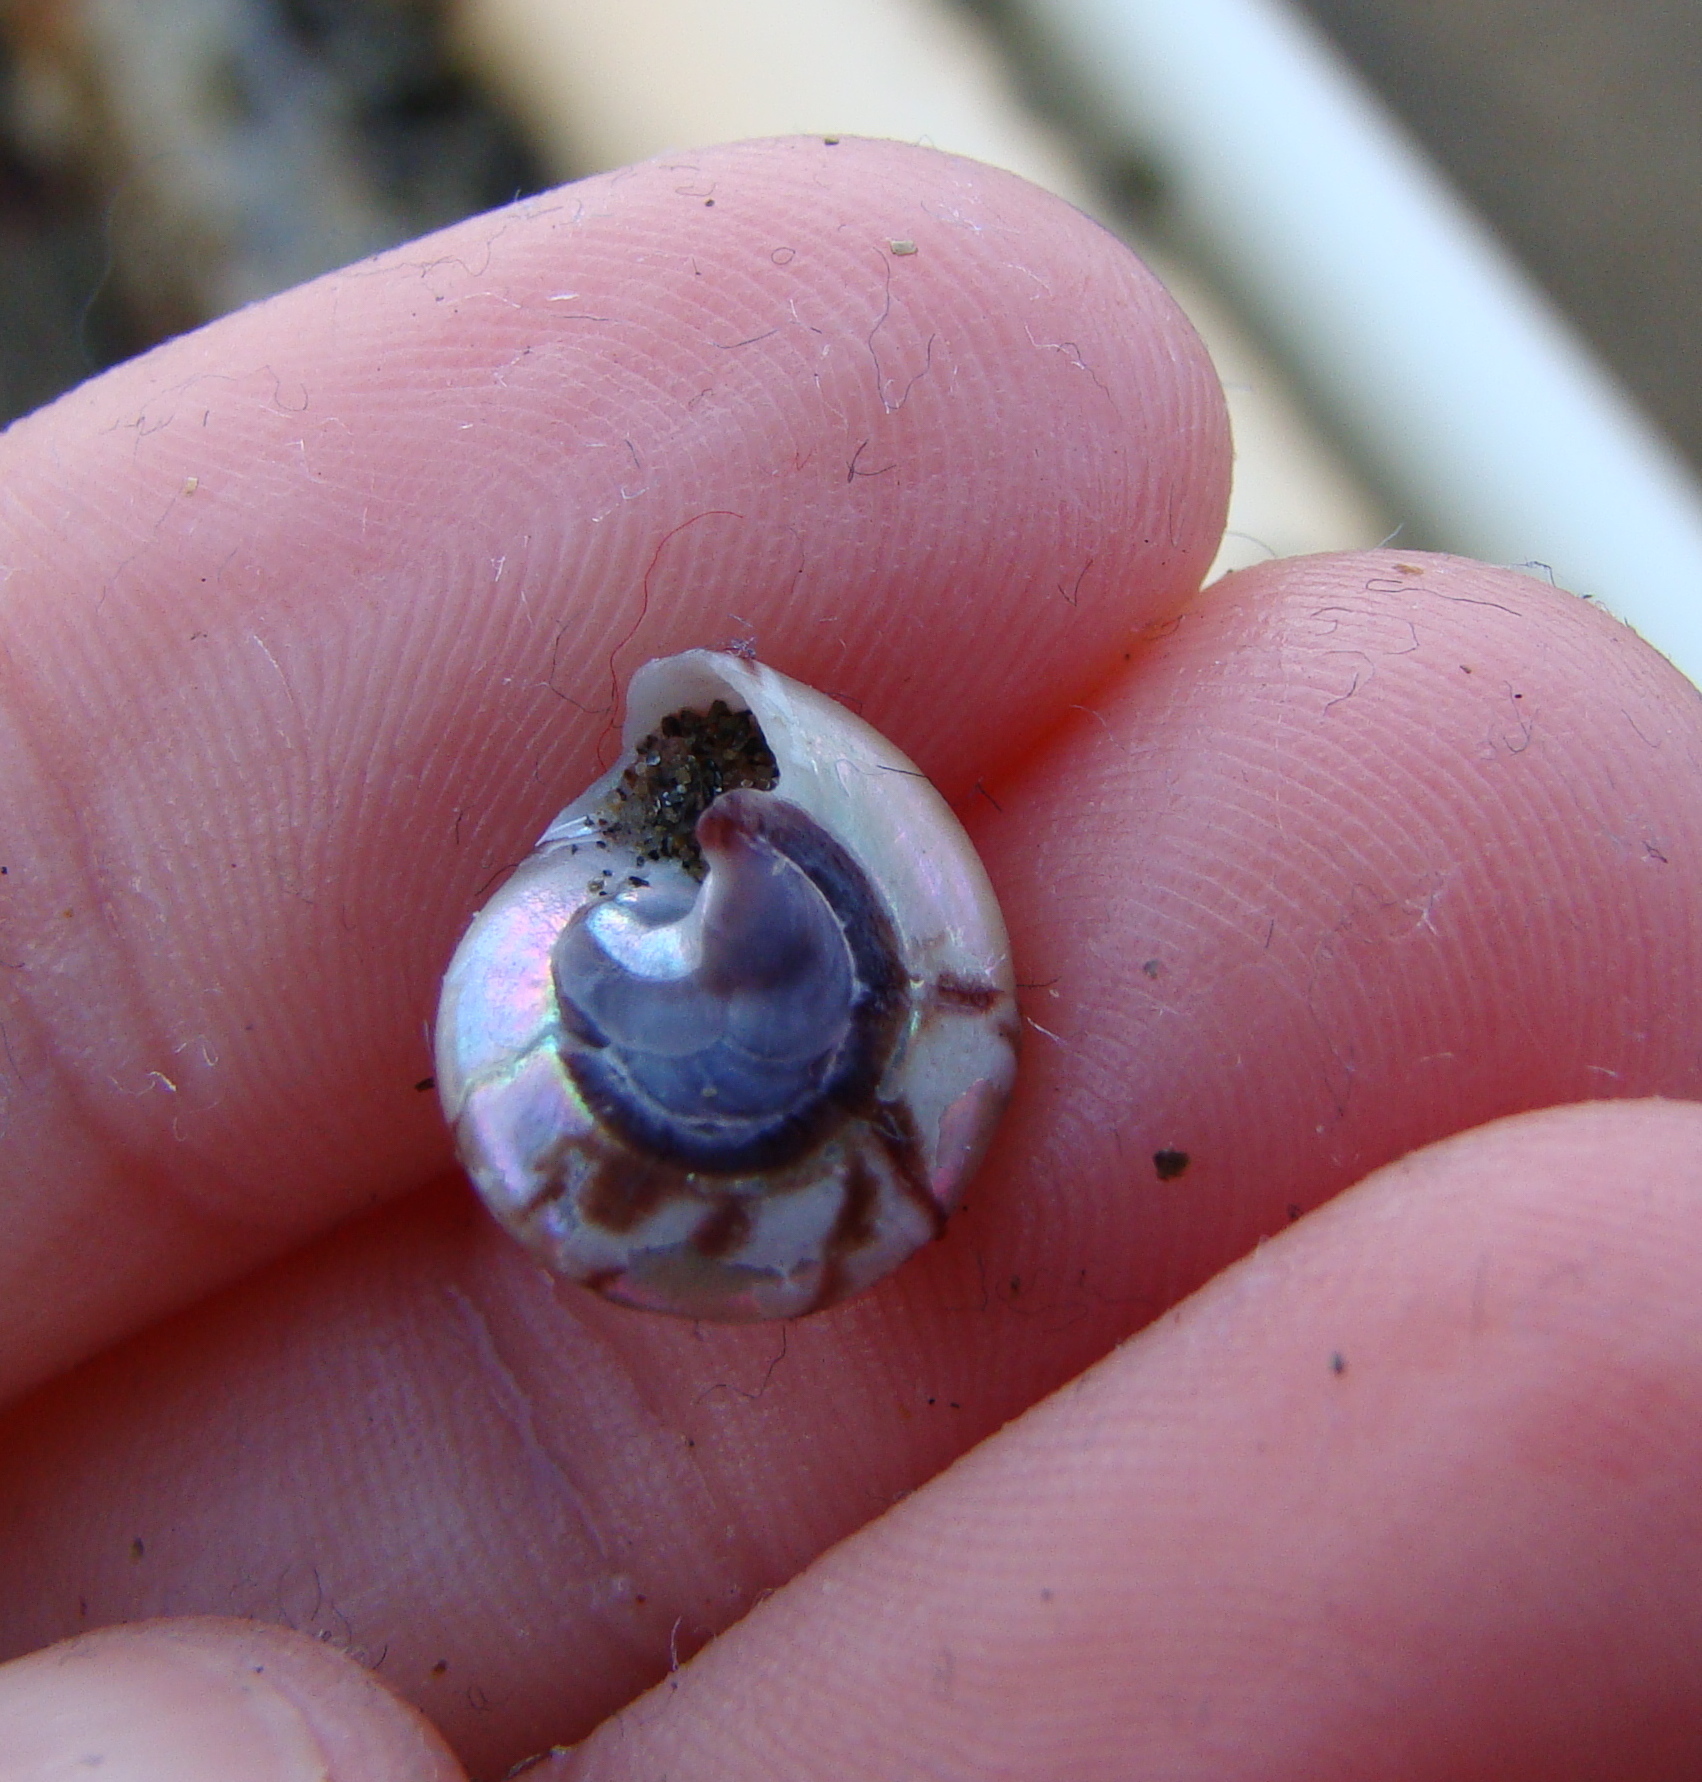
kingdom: Animalia
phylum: Mollusca
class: Gastropoda
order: Trochida
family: Trochidae
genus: Zethalia
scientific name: Zethalia zelandica
